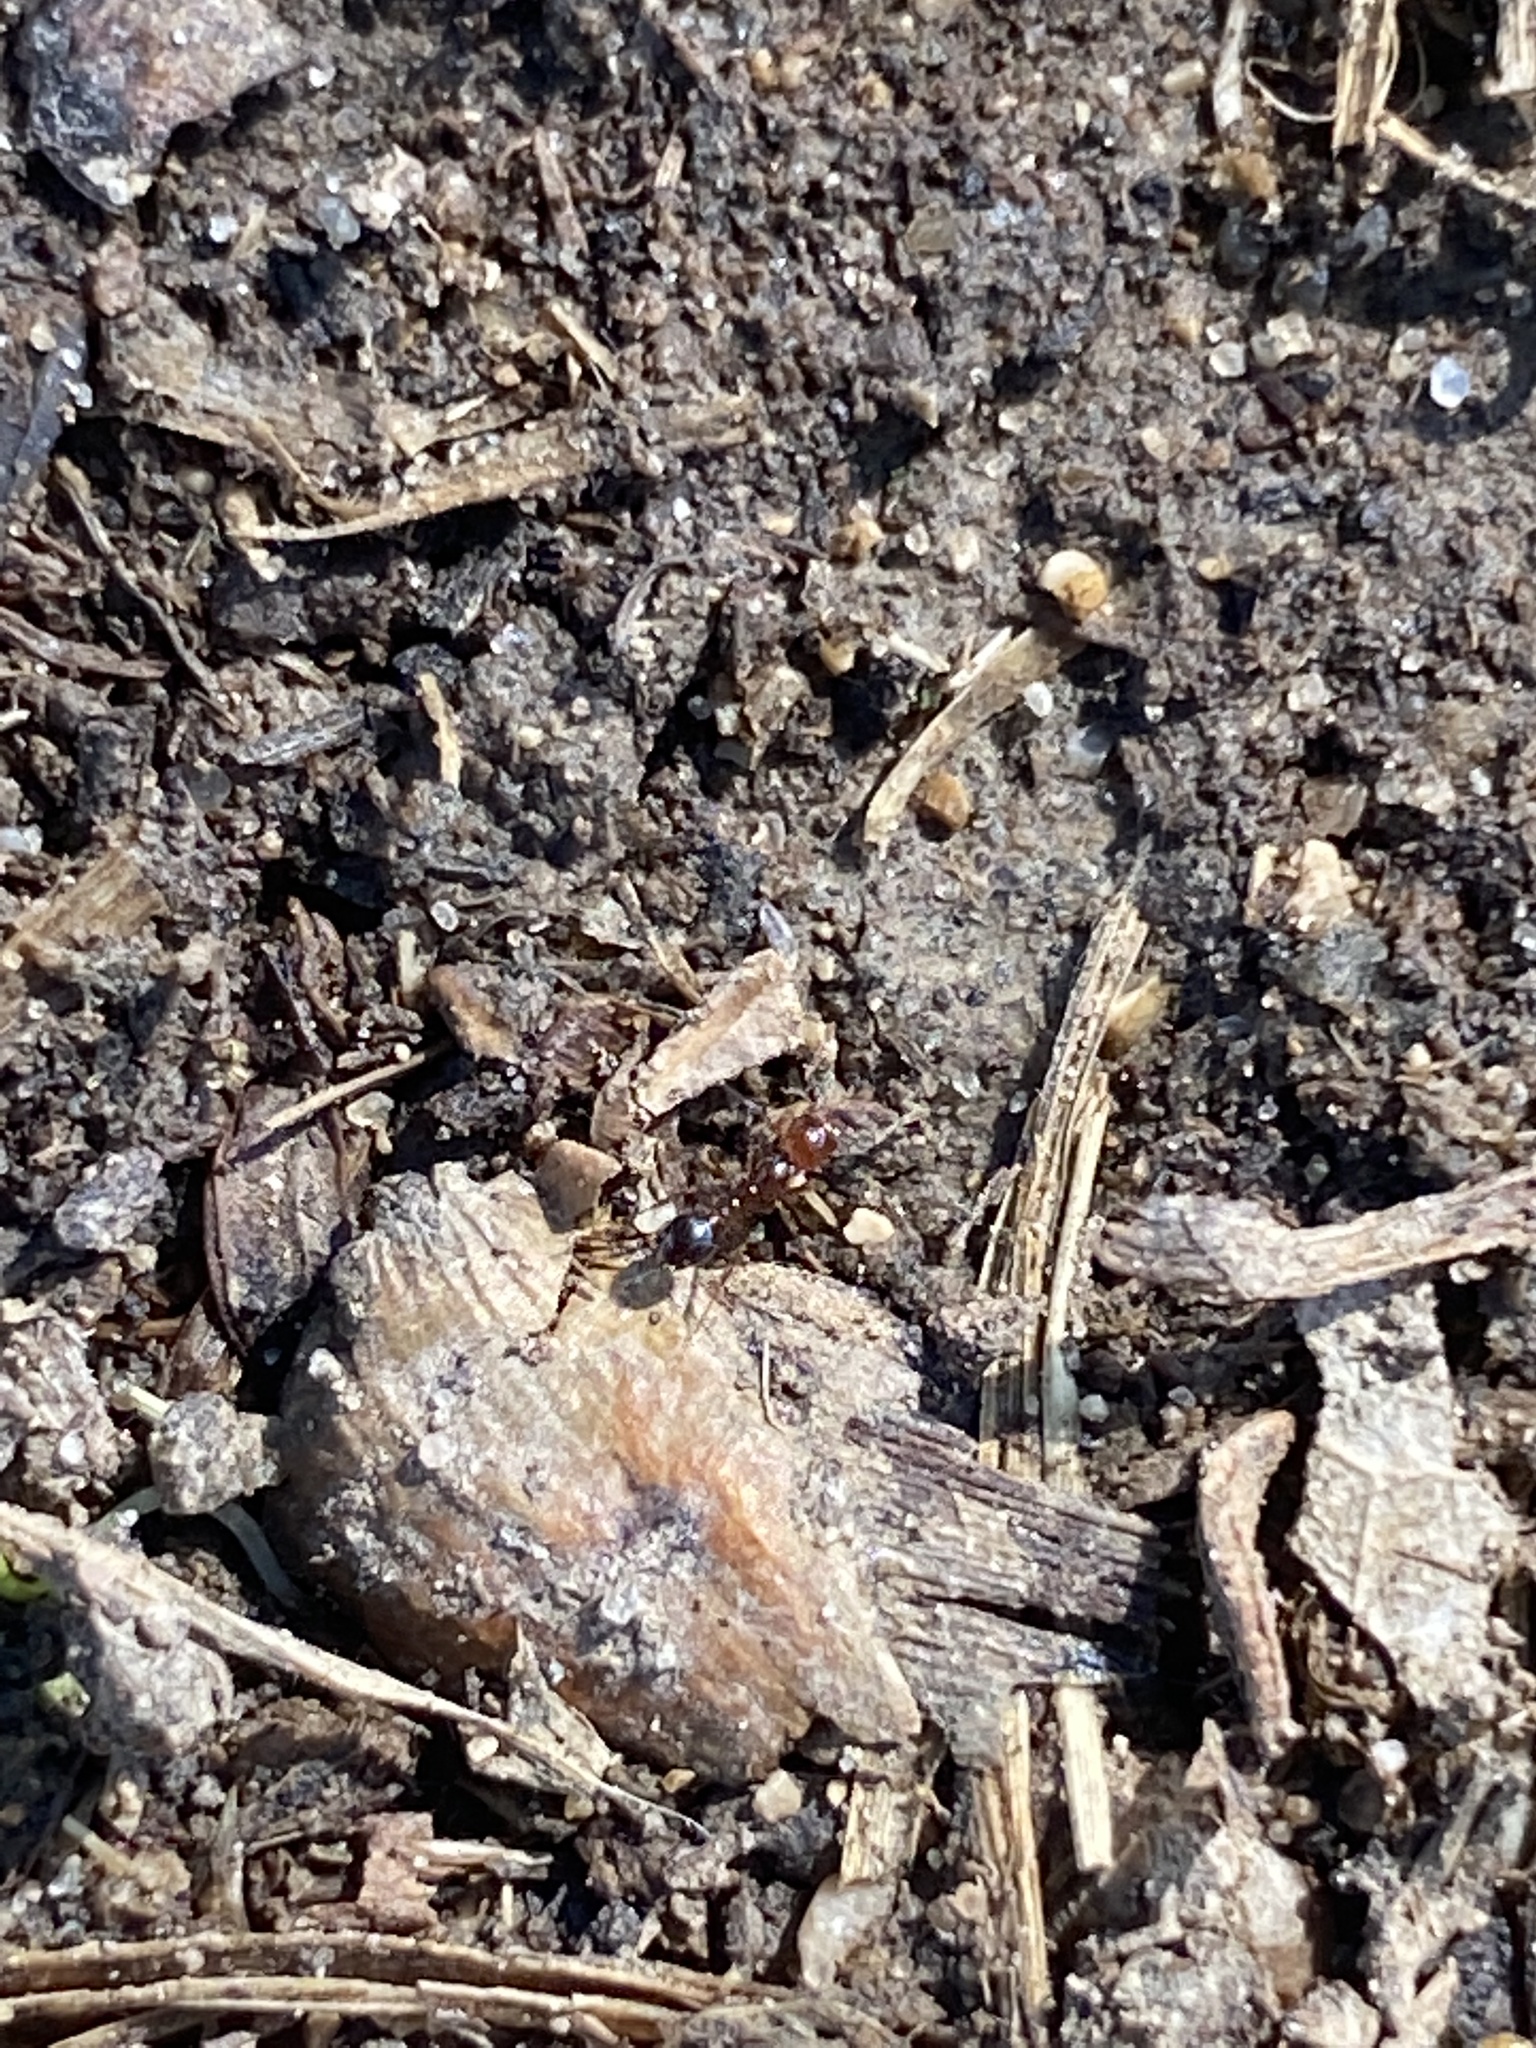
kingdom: Animalia
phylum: Arthropoda
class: Insecta
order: Hymenoptera
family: Formicidae
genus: Solenopsis
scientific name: Solenopsis invicta
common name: Red imported fire ant
